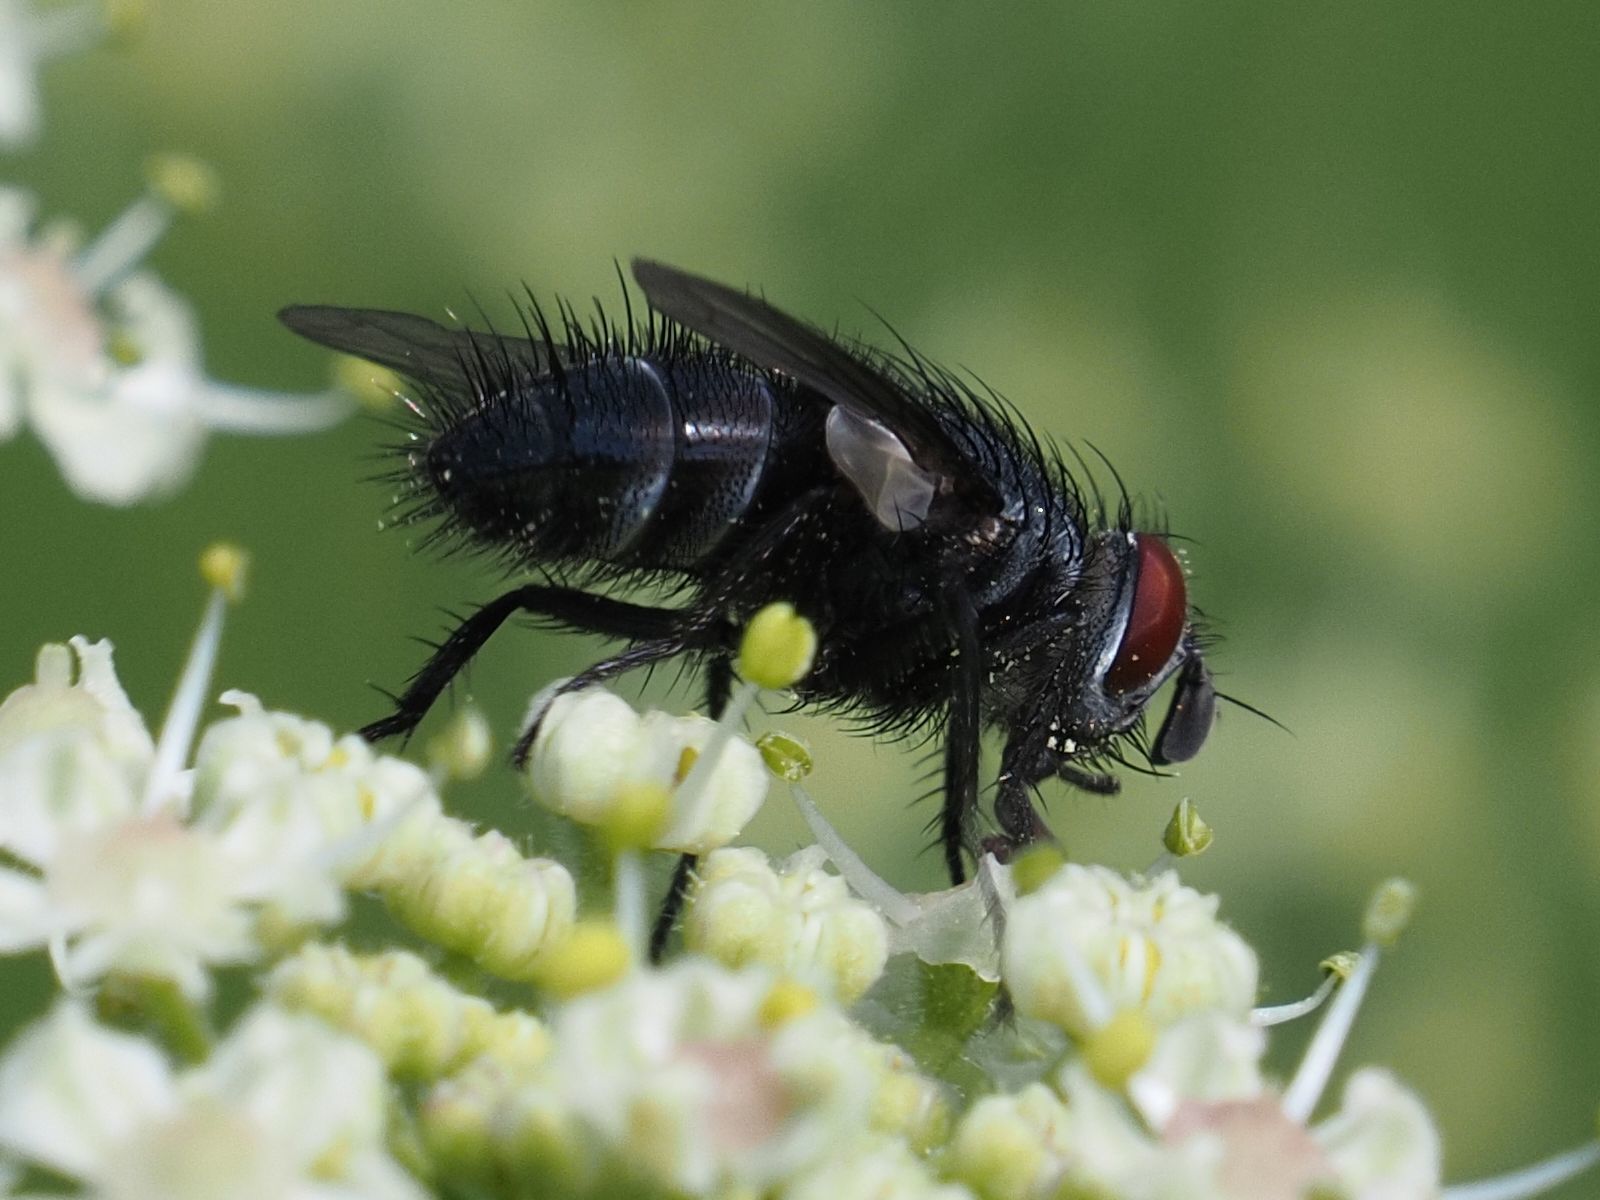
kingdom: Animalia
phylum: Arthropoda
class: Insecta
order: Diptera
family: Tachinidae
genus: Epicampocera
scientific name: Epicampocera succincta
